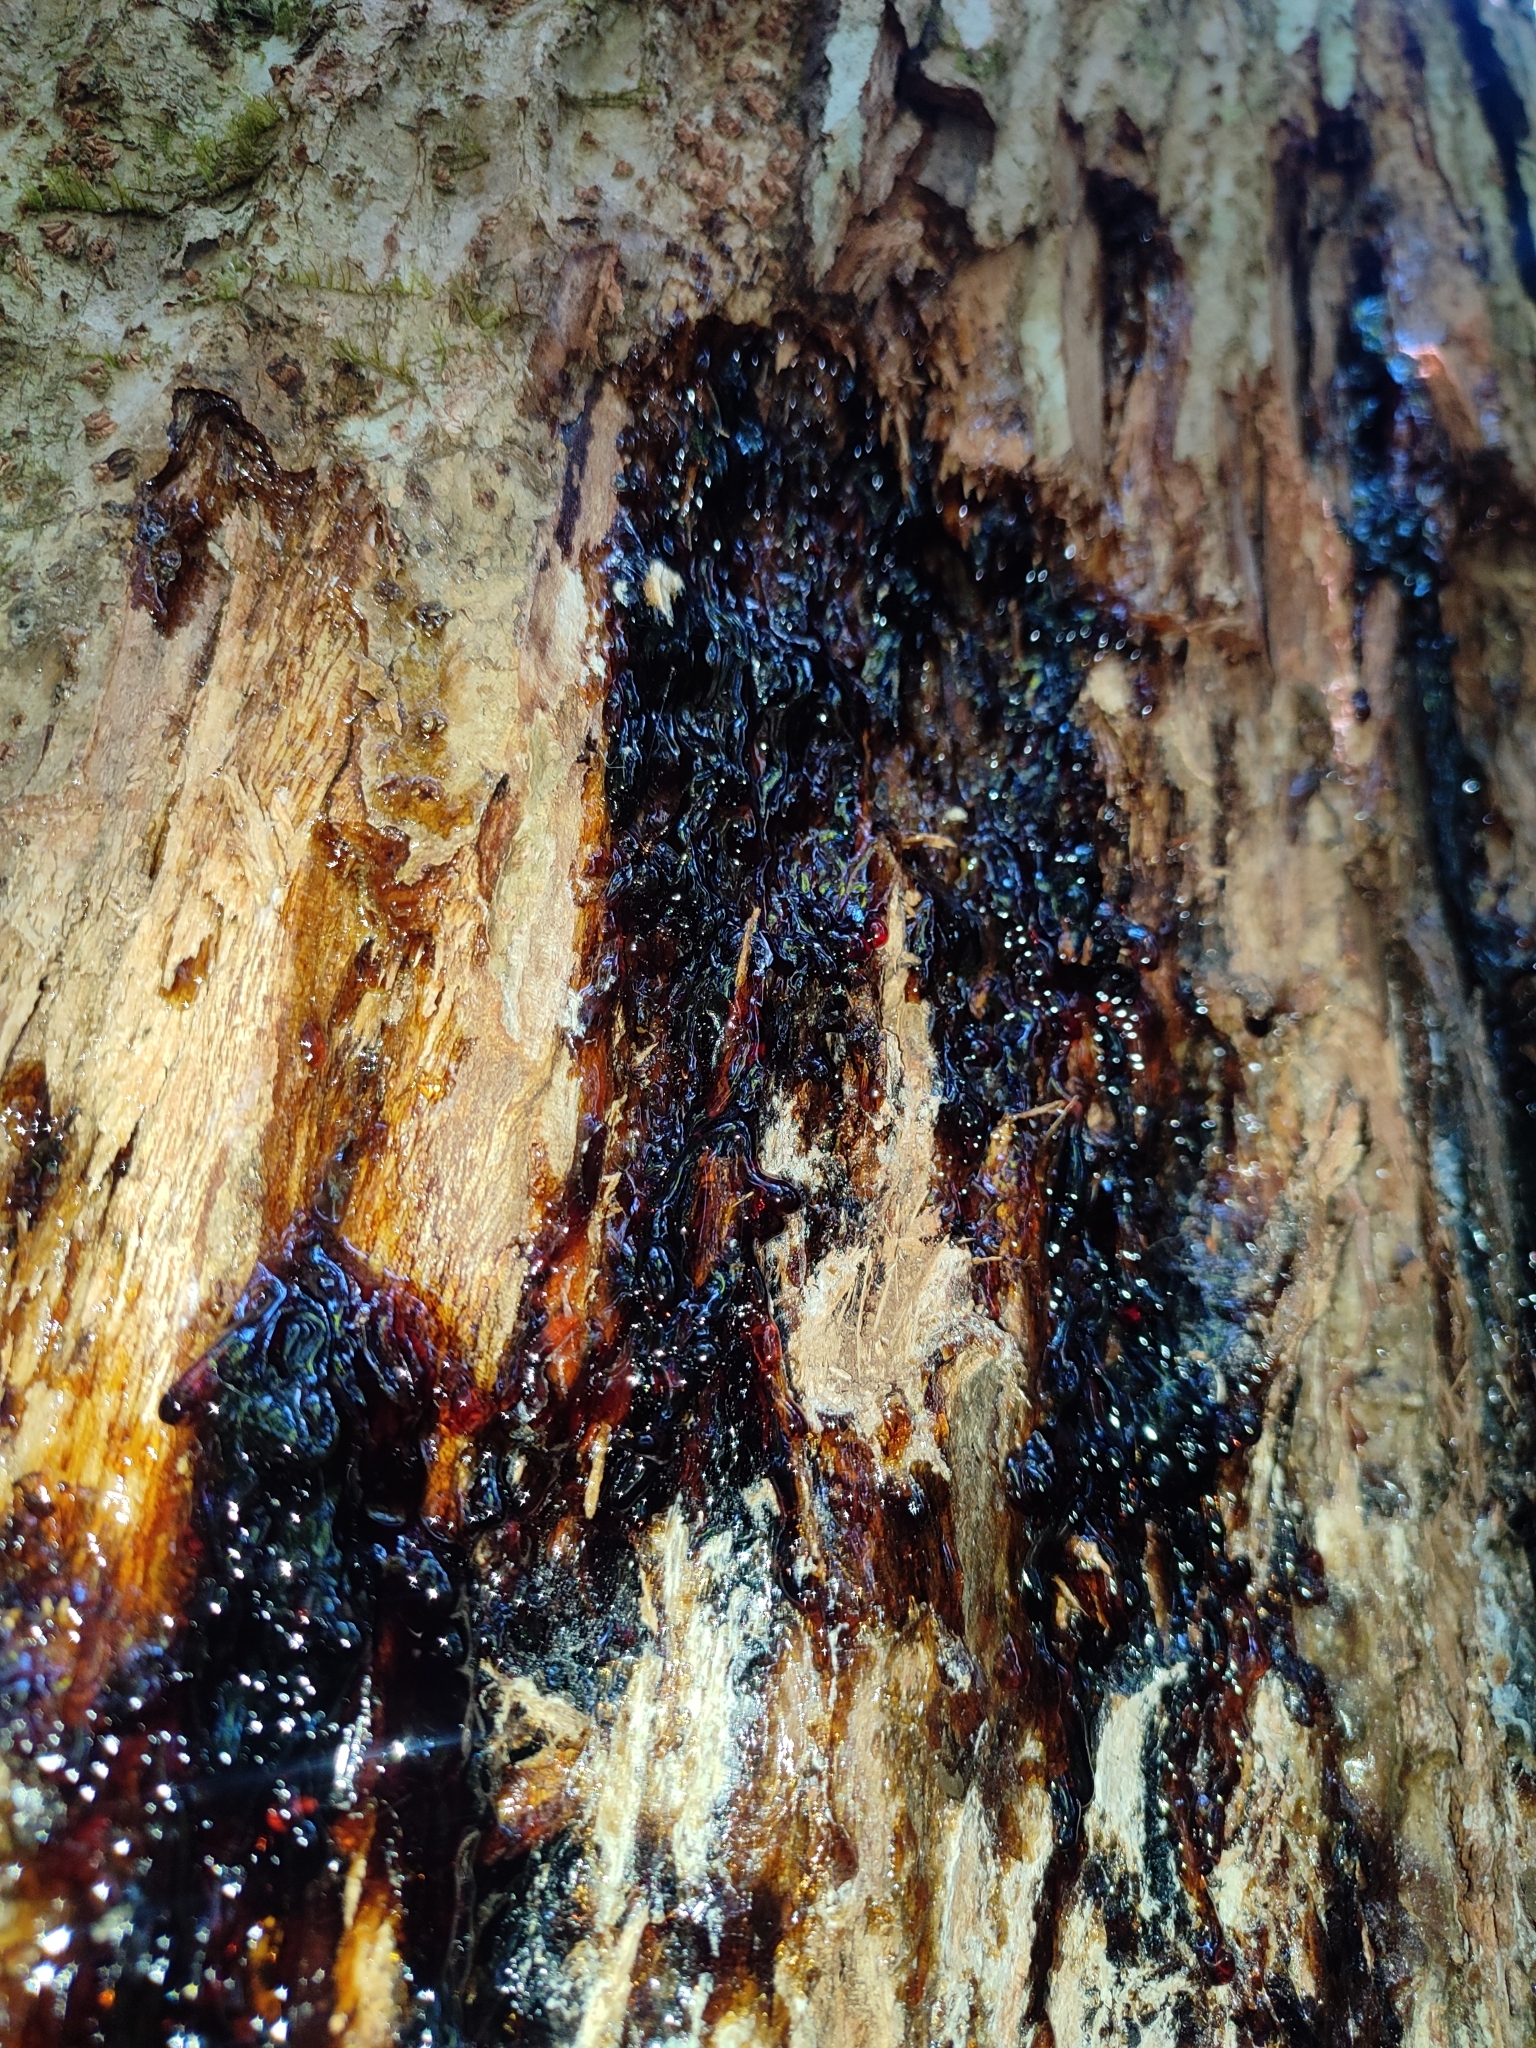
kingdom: Plantae
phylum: Tracheophyta
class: Magnoliopsida
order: Sapindales
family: Burseraceae
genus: Canarium
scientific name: Canarium strictum
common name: Indian white-mahogany
